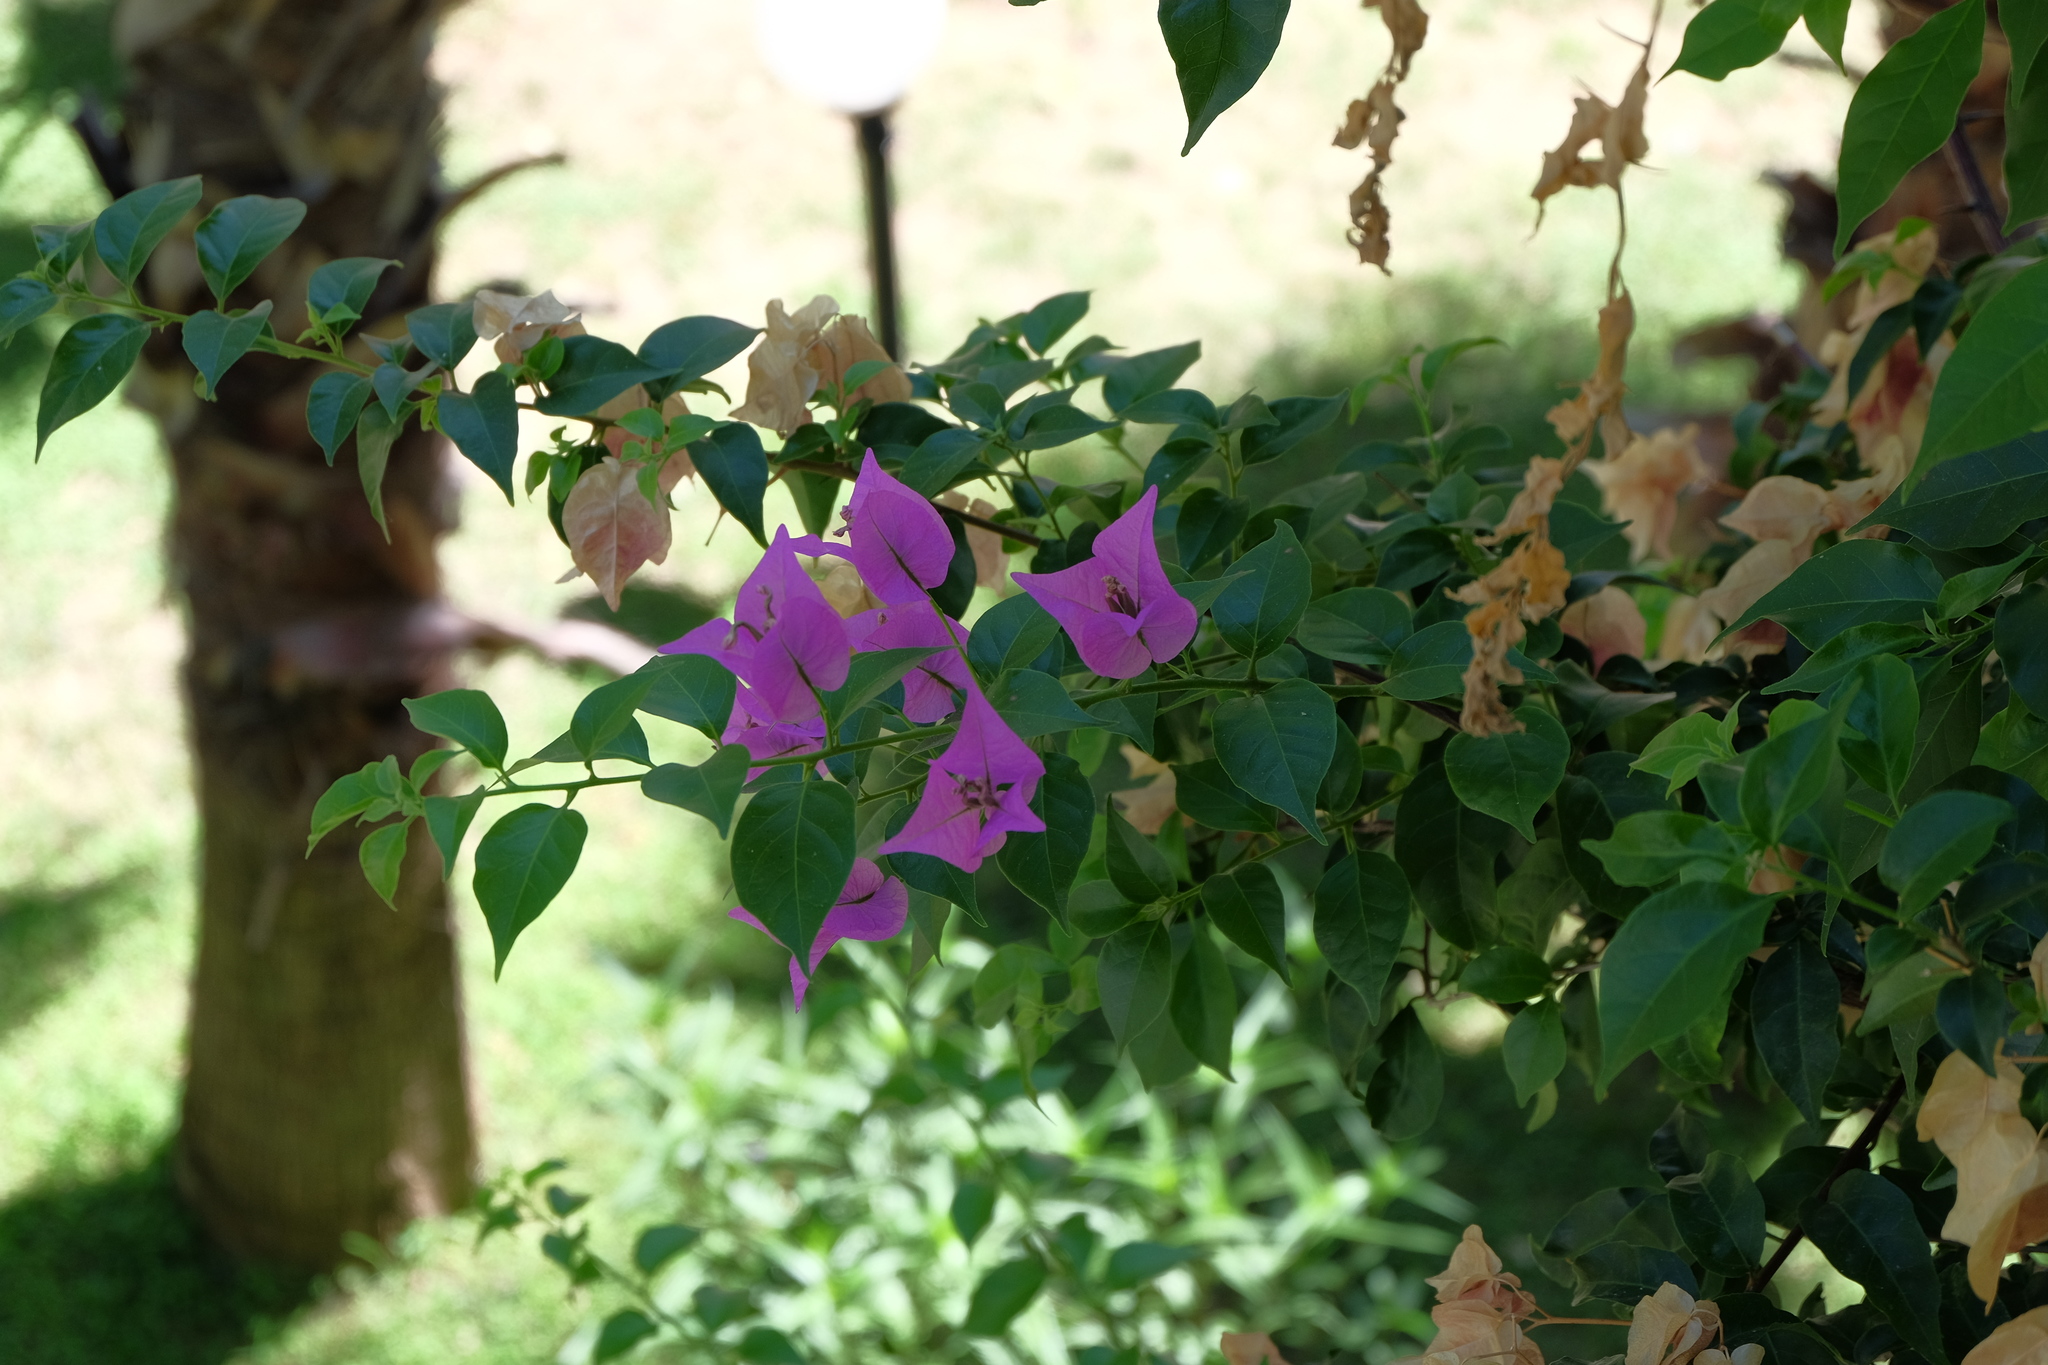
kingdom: Plantae
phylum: Tracheophyta
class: Magnoliopsida
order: Caryophyllales
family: Nyctaginaceae
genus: Bougainvillea
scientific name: Bougainvillea glabra
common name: Paperflower
